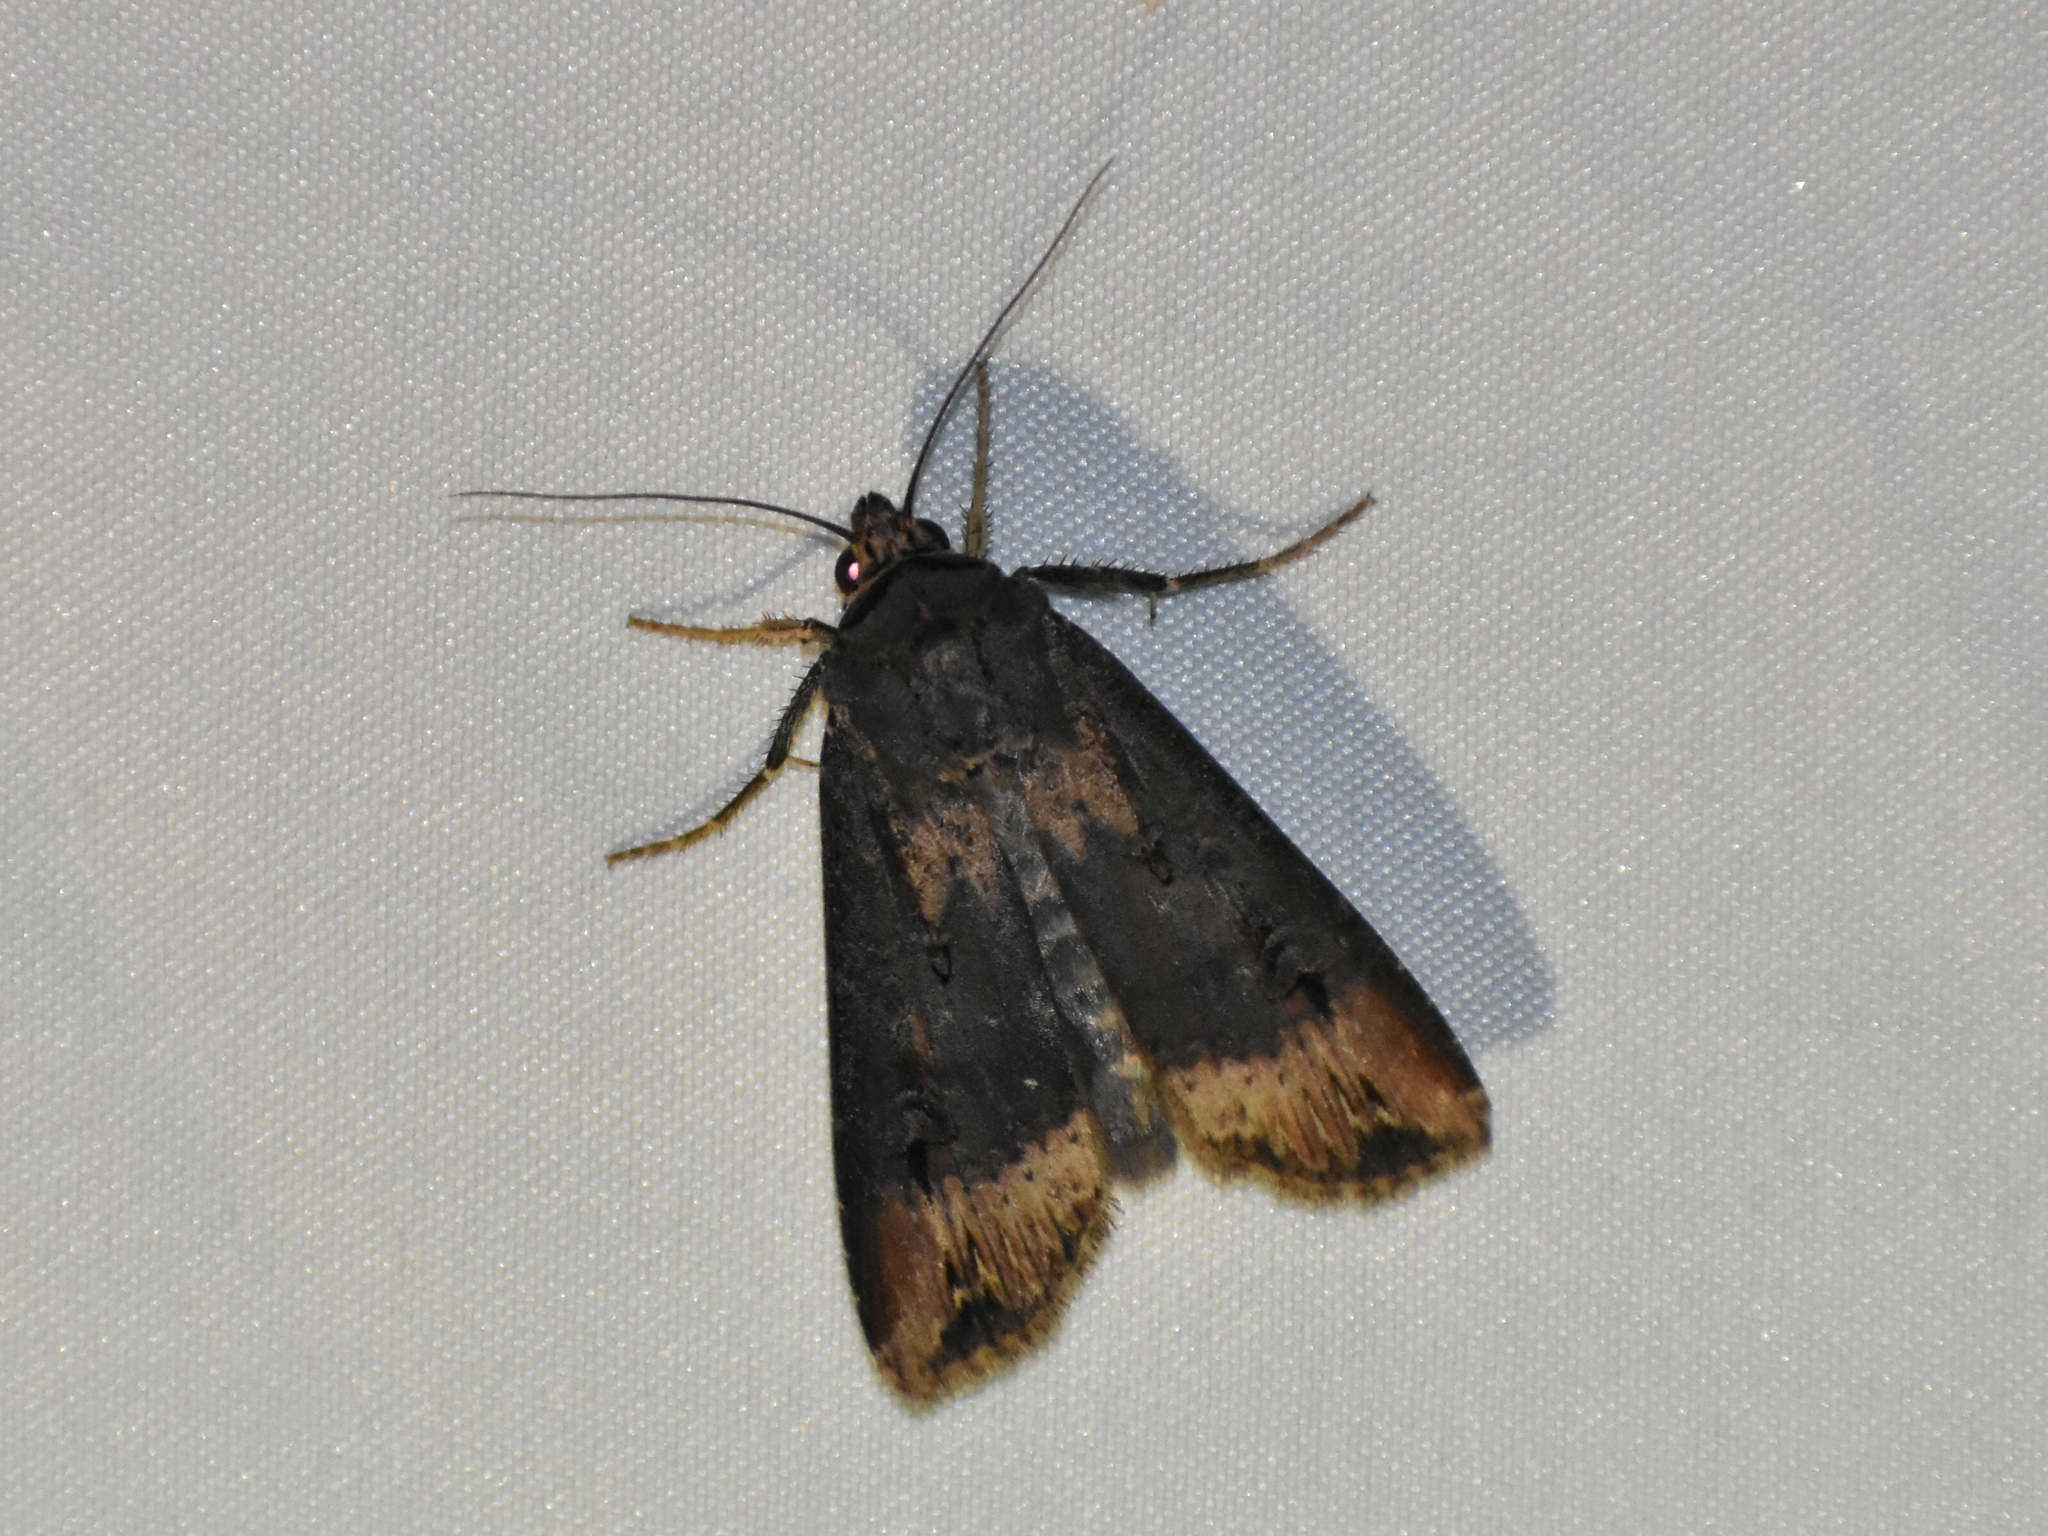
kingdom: Animalia
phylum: Arthropoda
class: Insecta
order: Lepidoptera
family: Noctuidae
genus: Agrotis
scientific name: Agrotis ipsilon
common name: Dark sword-grass
